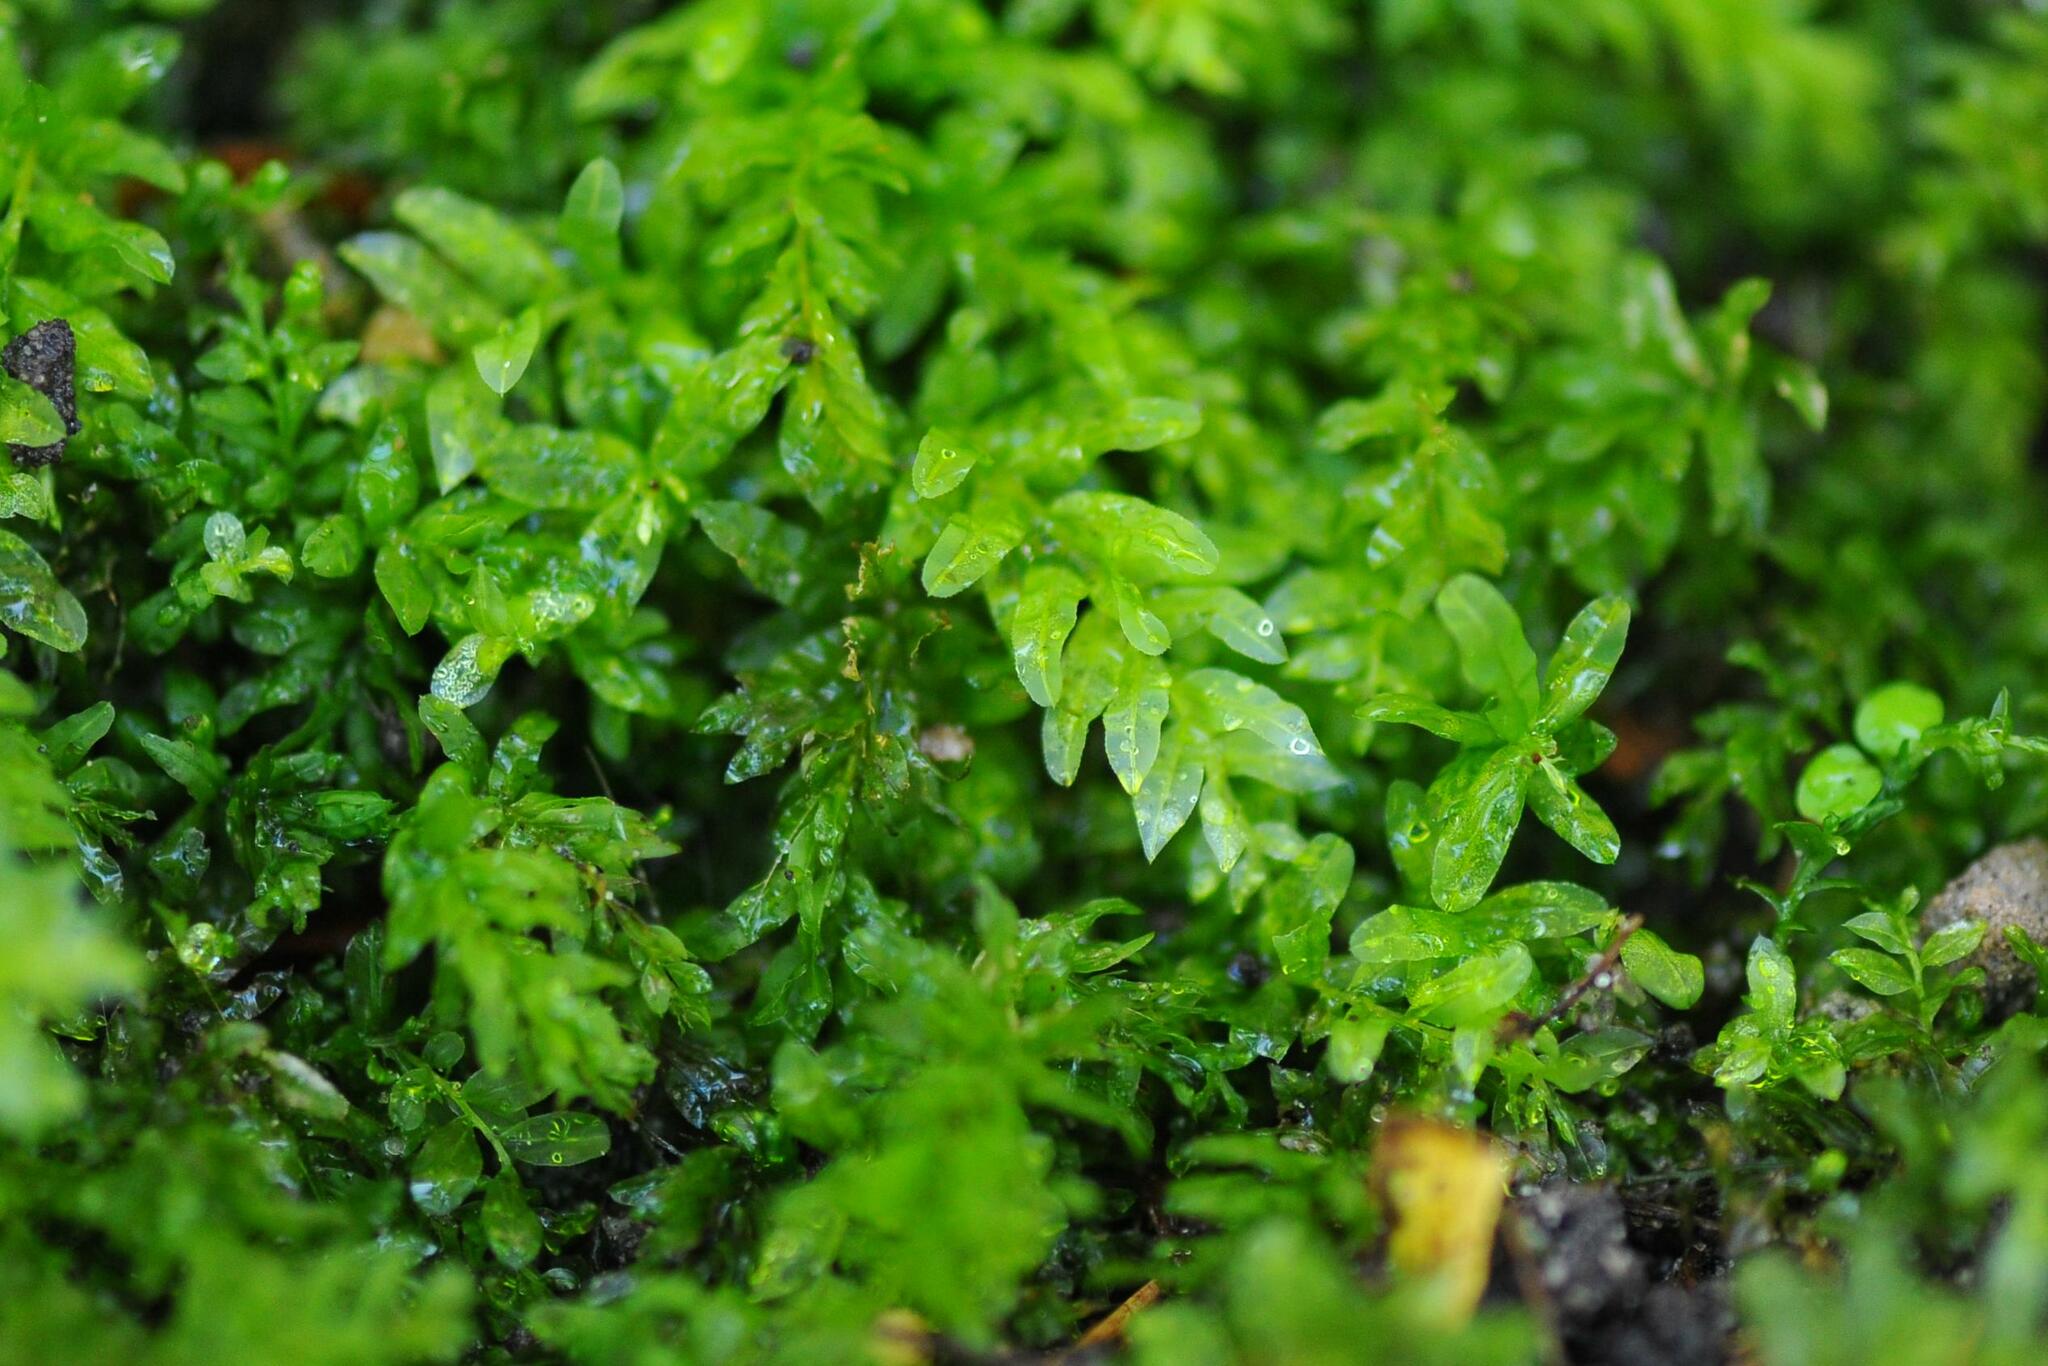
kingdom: Plantae
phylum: Bryophyta
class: Bryopsida
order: Bryales
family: Mniaceae
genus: Plagiomnium
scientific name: Plagiomnium undulatum
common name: Hart's-tongue thyme-moss
